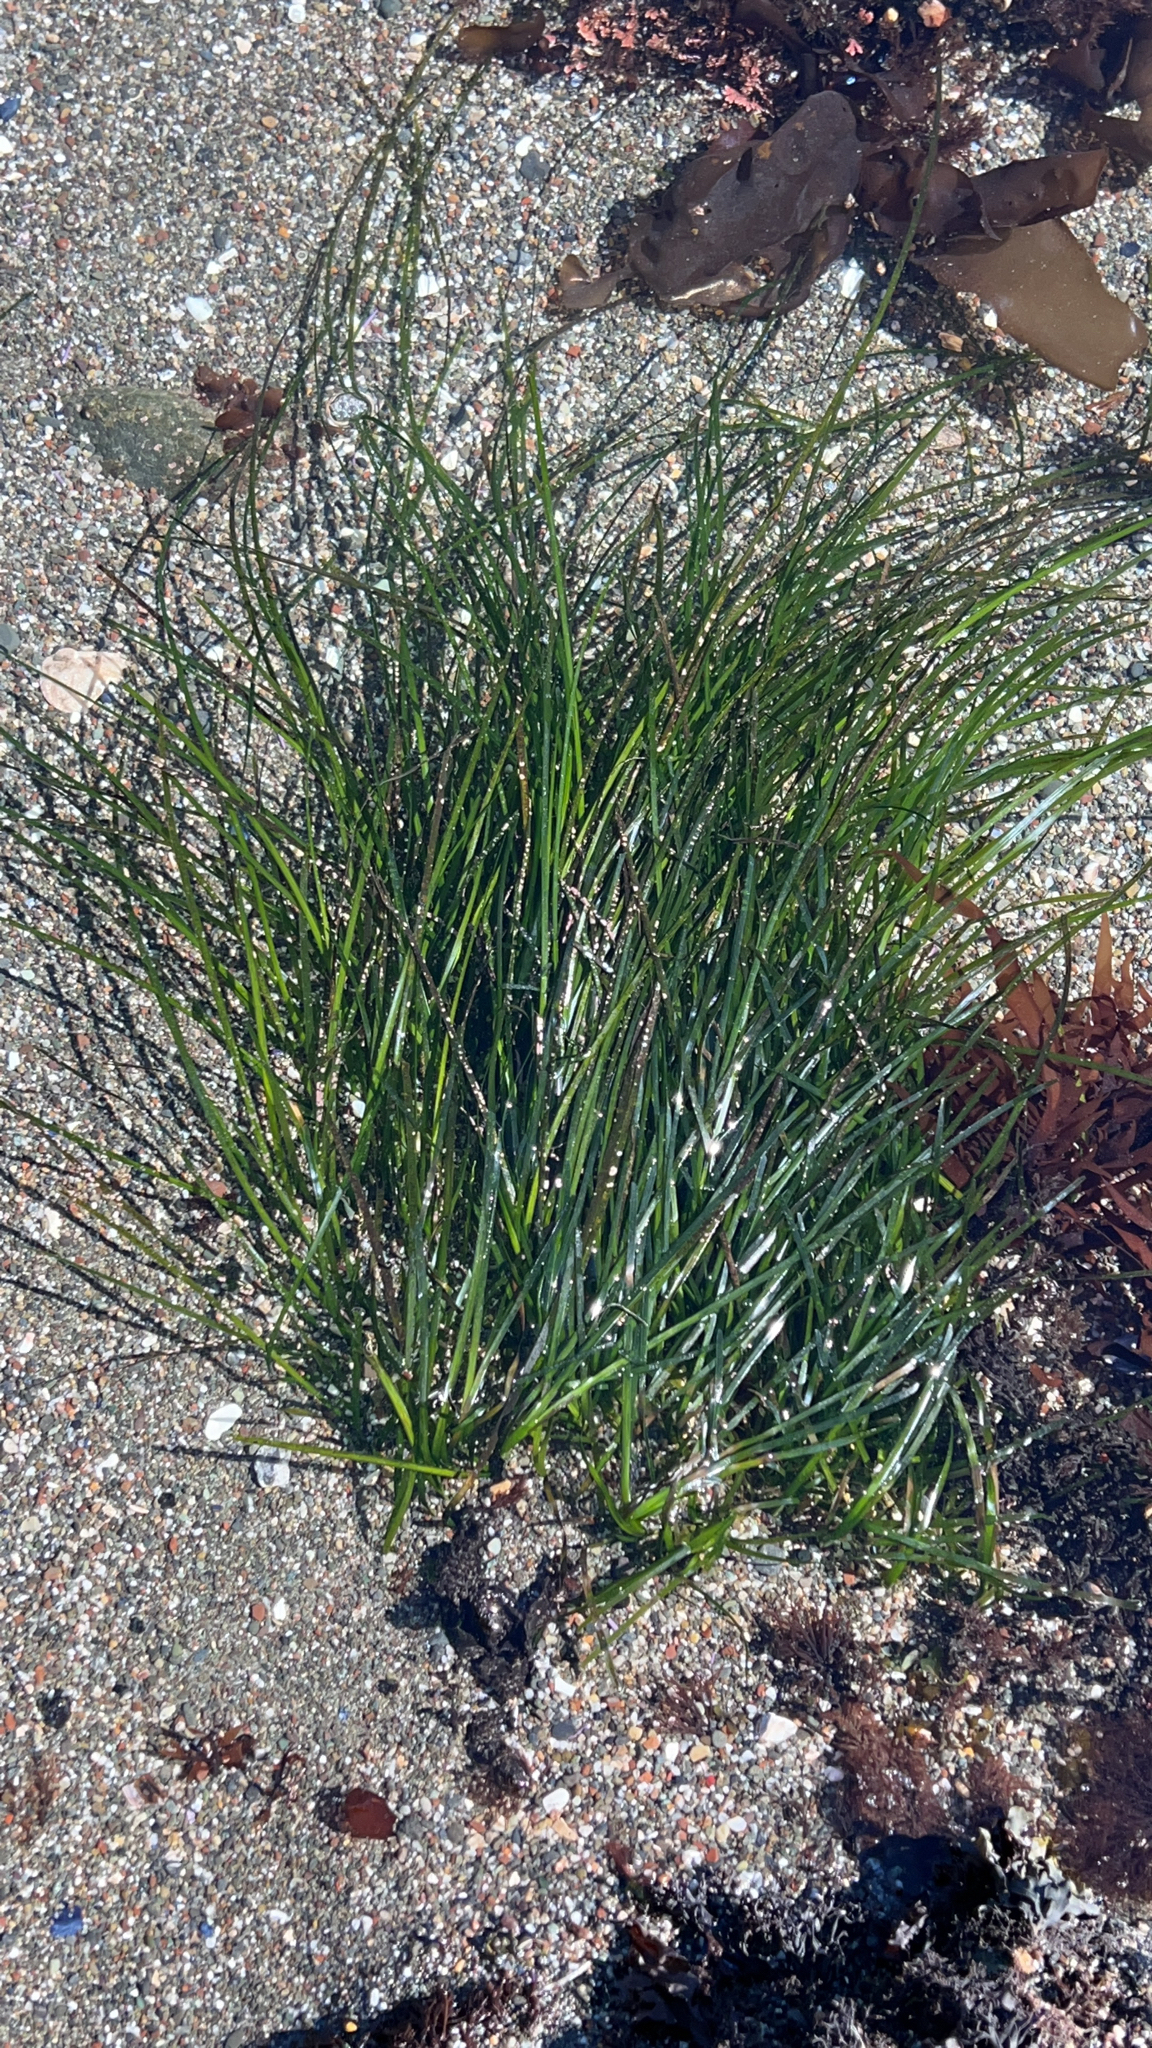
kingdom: Plantae
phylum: Tracheophyta
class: Liliopsida
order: Alismatales
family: Zosteraceae
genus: Phyllospadix
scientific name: Phyllospadix torreyi
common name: Surfgrass
